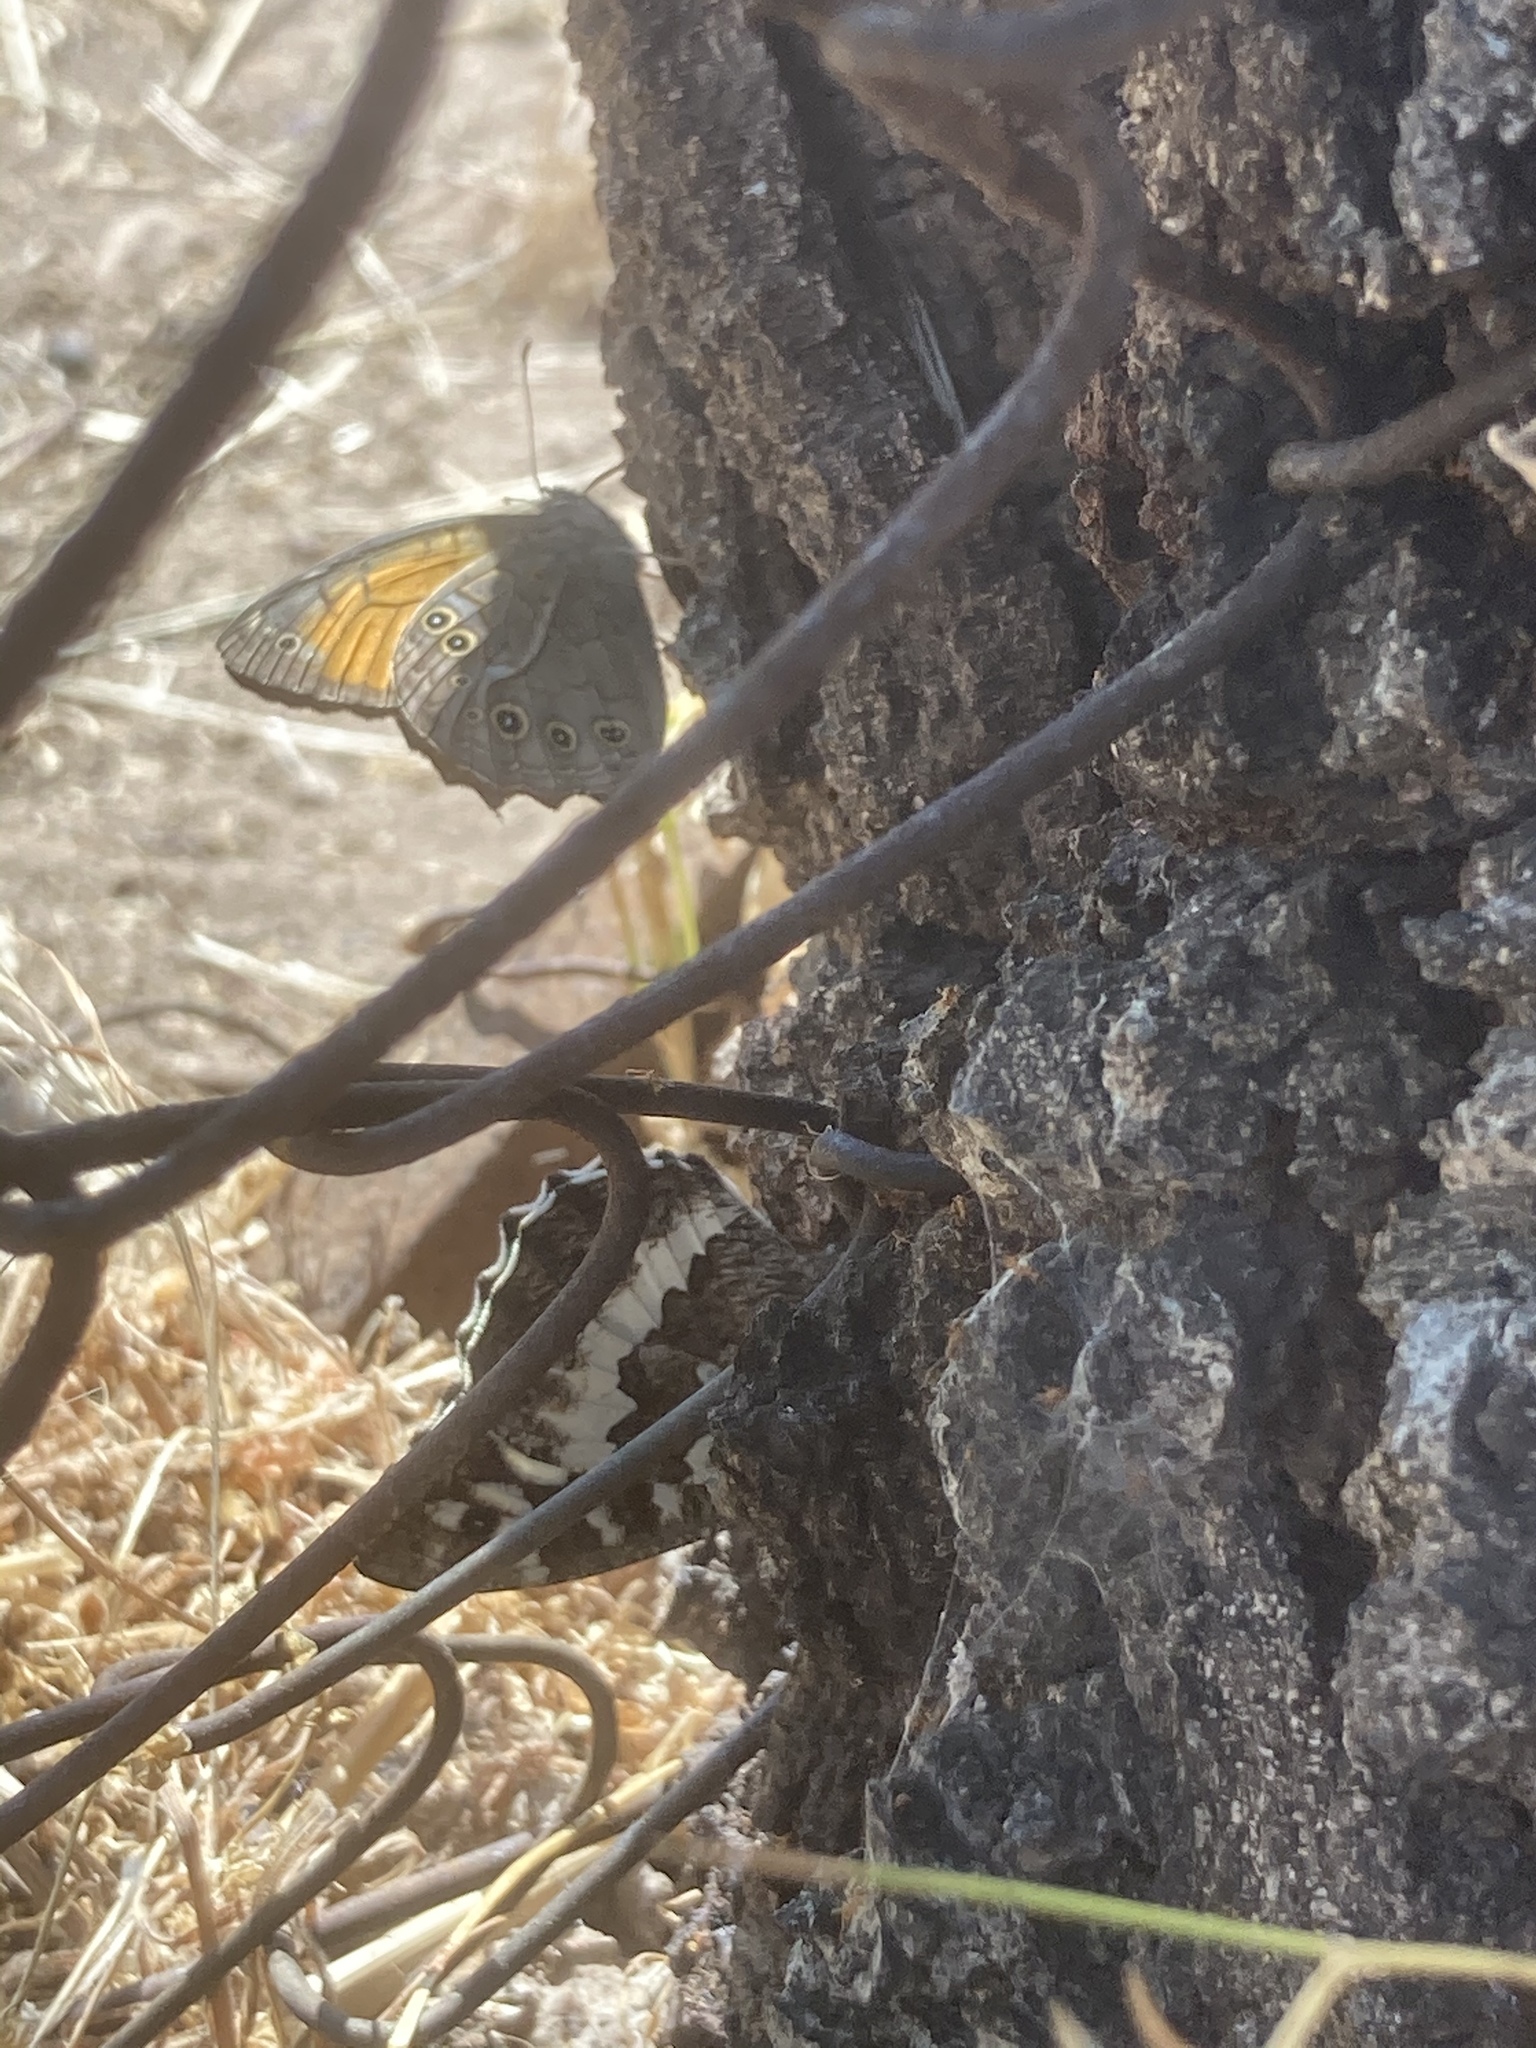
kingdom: Animalia
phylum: Arthropoda
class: Insecta
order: Lepidoptera
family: Nymphalidae
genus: Kirinia
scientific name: Kirinia roxelana
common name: Lattice brown
